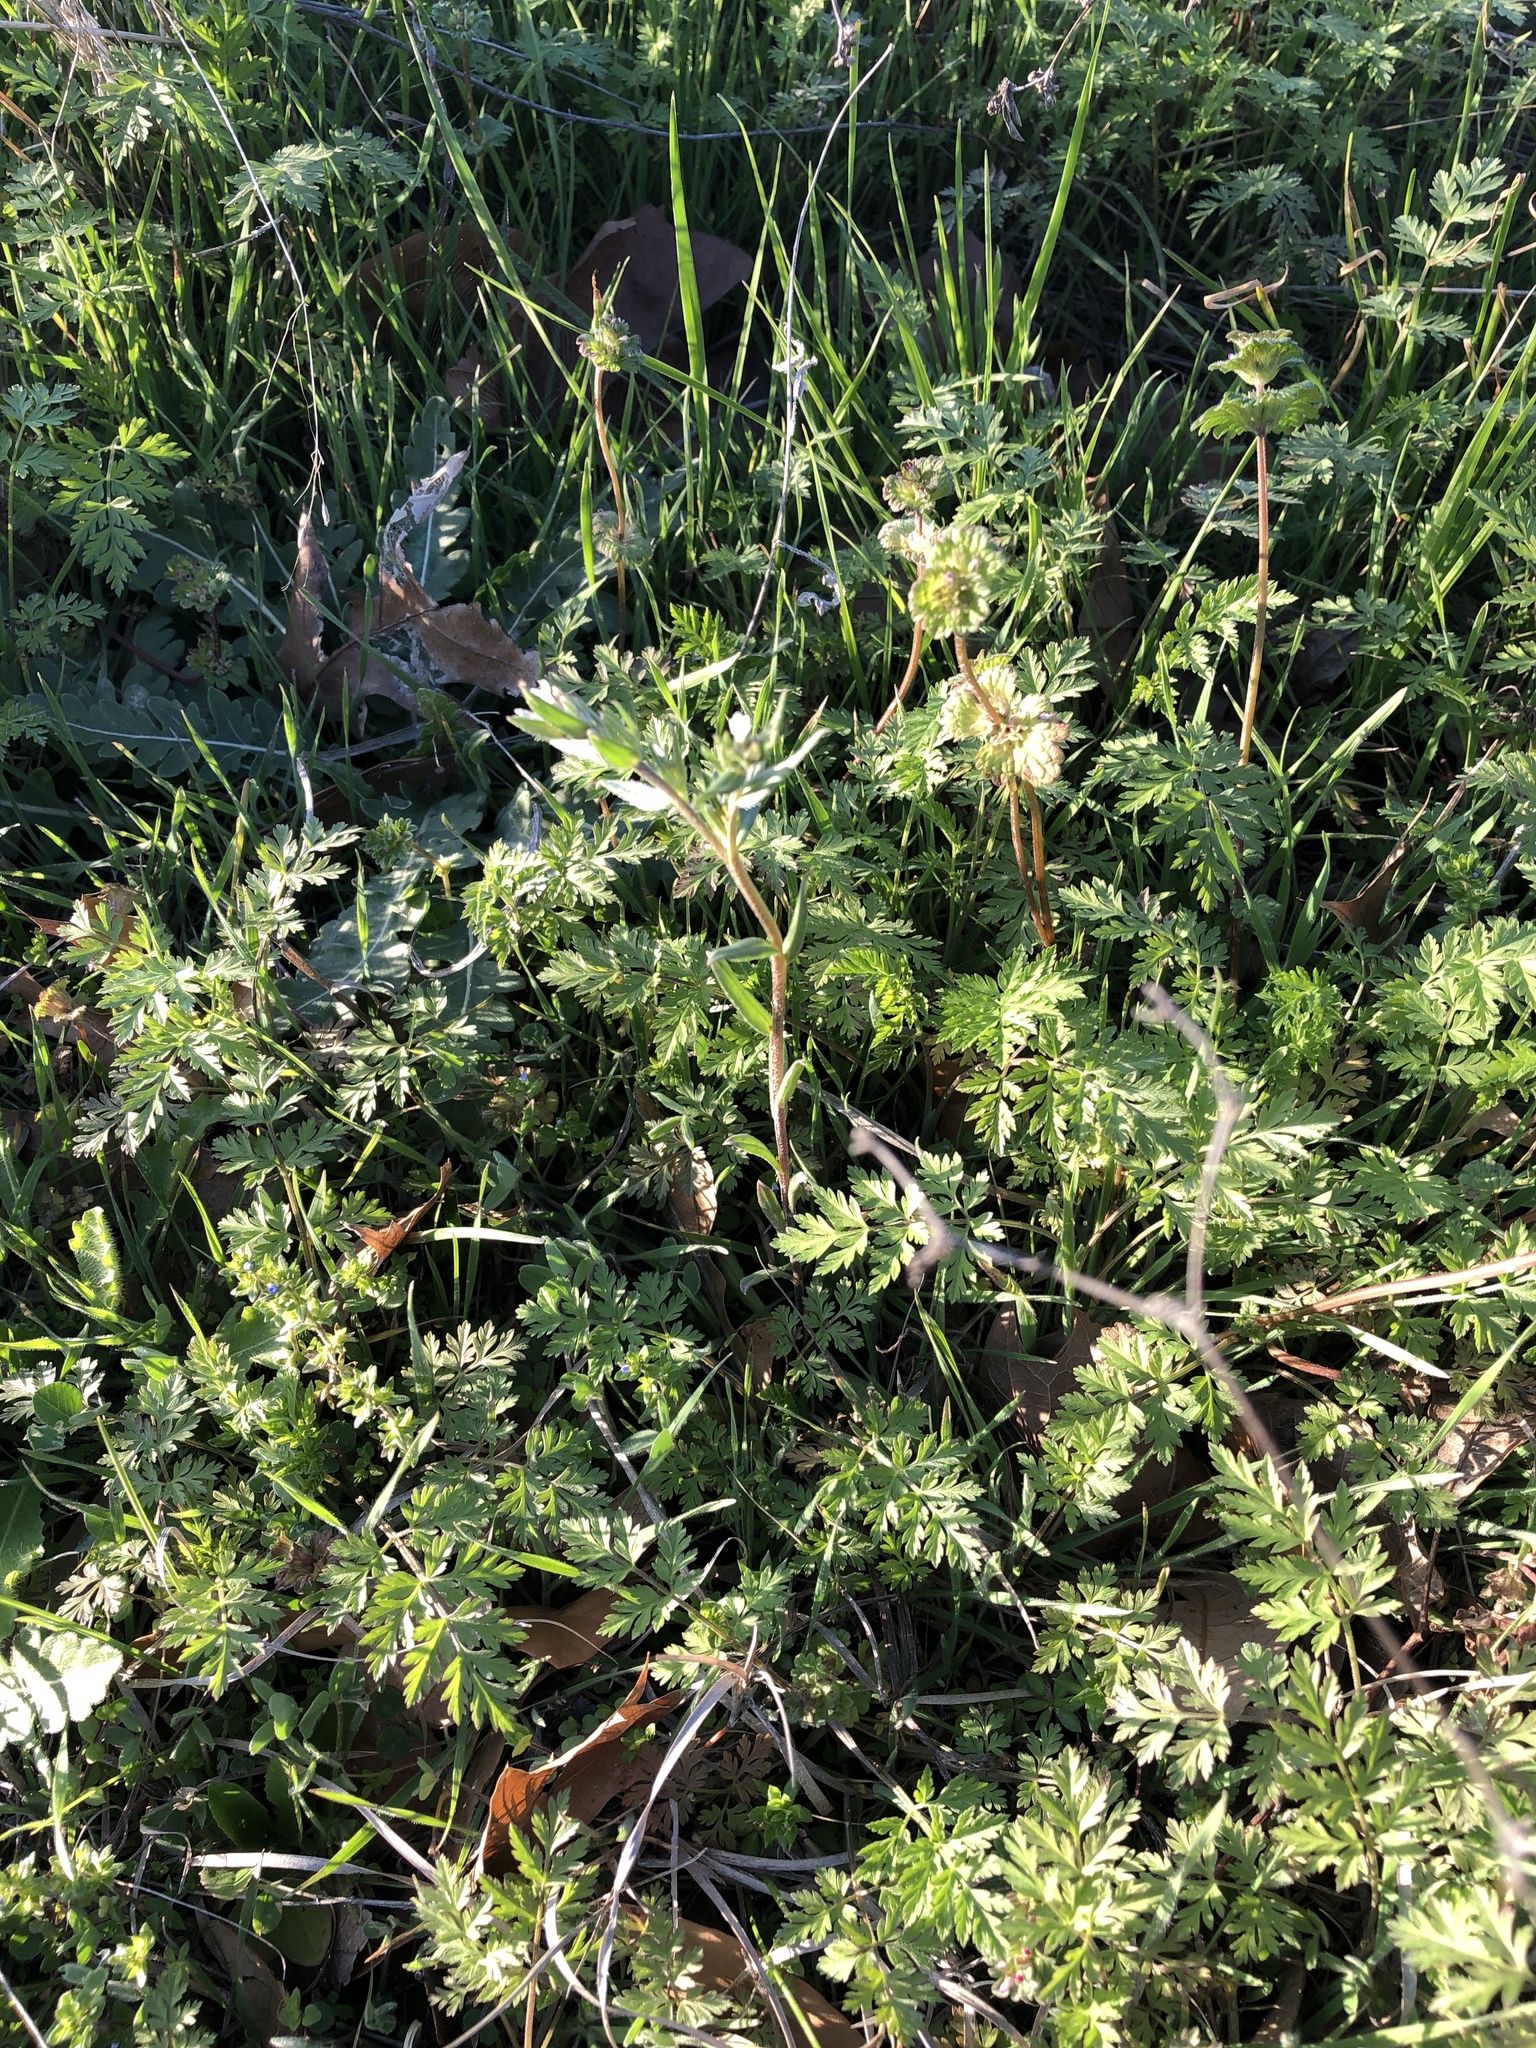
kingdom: Plantae
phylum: Tracheophyta
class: Magnoliopsida
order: Boraginales
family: Boraginaceae
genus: Buglossoides
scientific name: Buglossoides arvensis
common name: Corn gromwell
